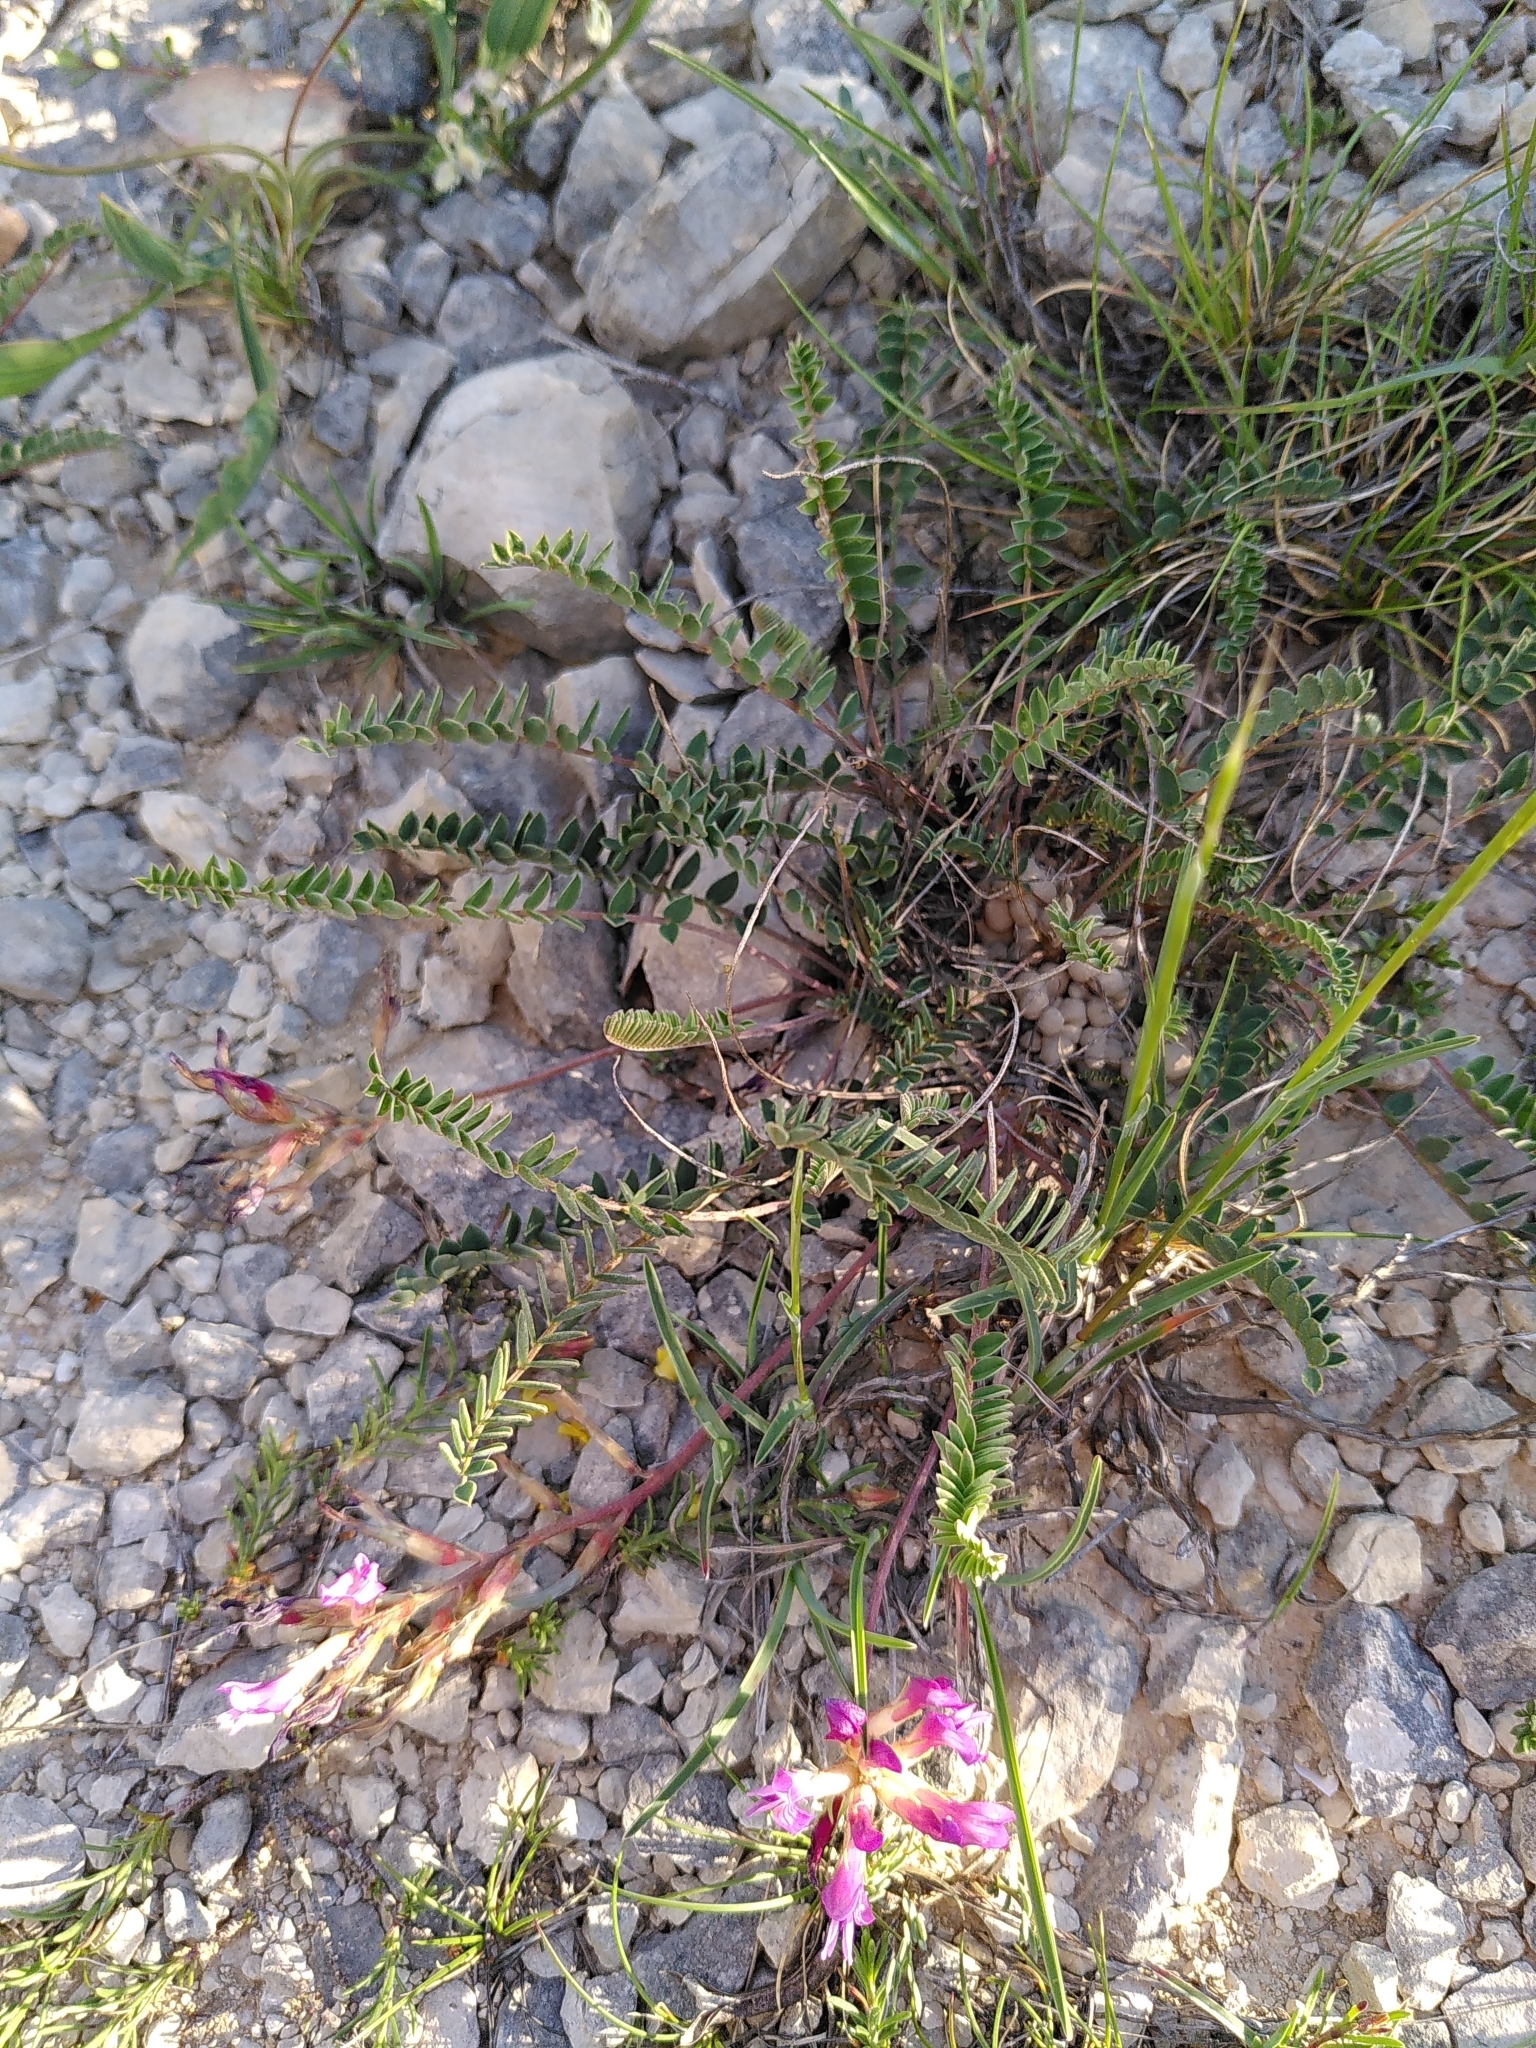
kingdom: Plantae
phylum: Tracheophyta
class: Magnoliopsida
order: Fabales
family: Fabaceae
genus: Astragalus
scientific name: Astragalus monspessulanus
